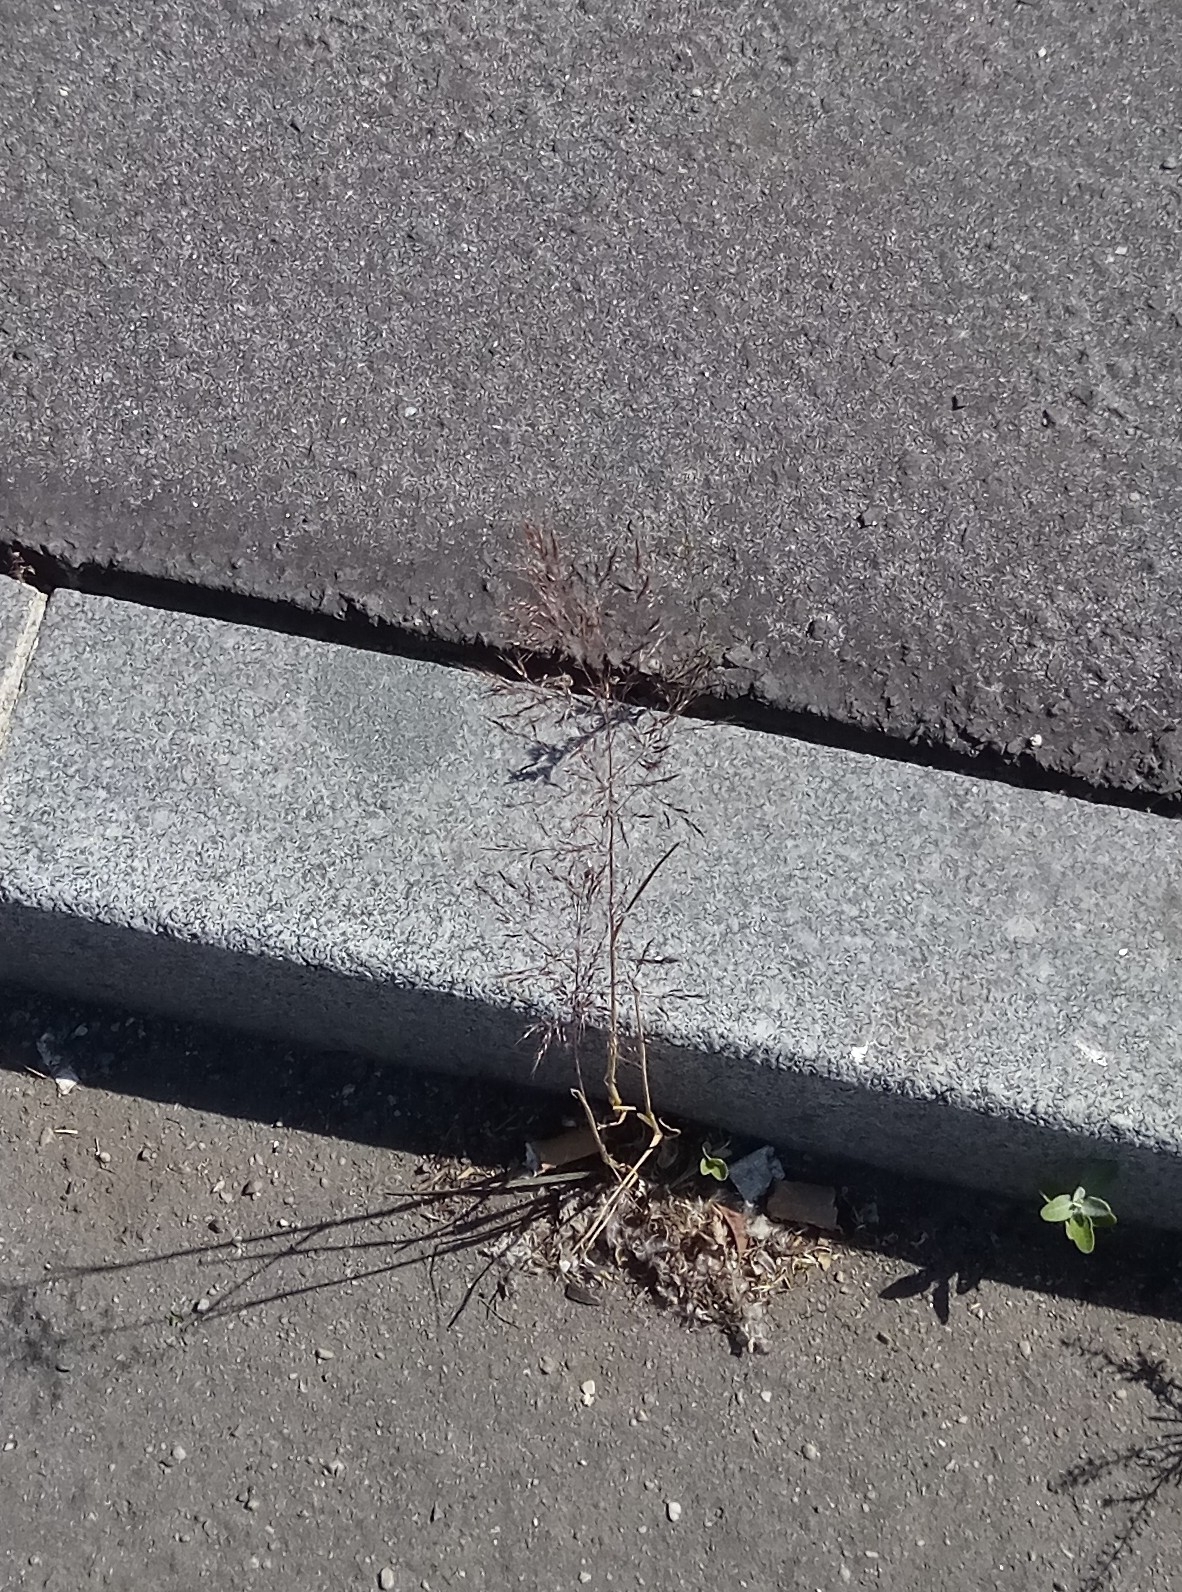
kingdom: Plantae
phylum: Tracheophyta
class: Liliopsida
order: Poales
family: Poaceae
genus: Apera
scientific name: Apera spica-venti
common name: Loose silky-bent
